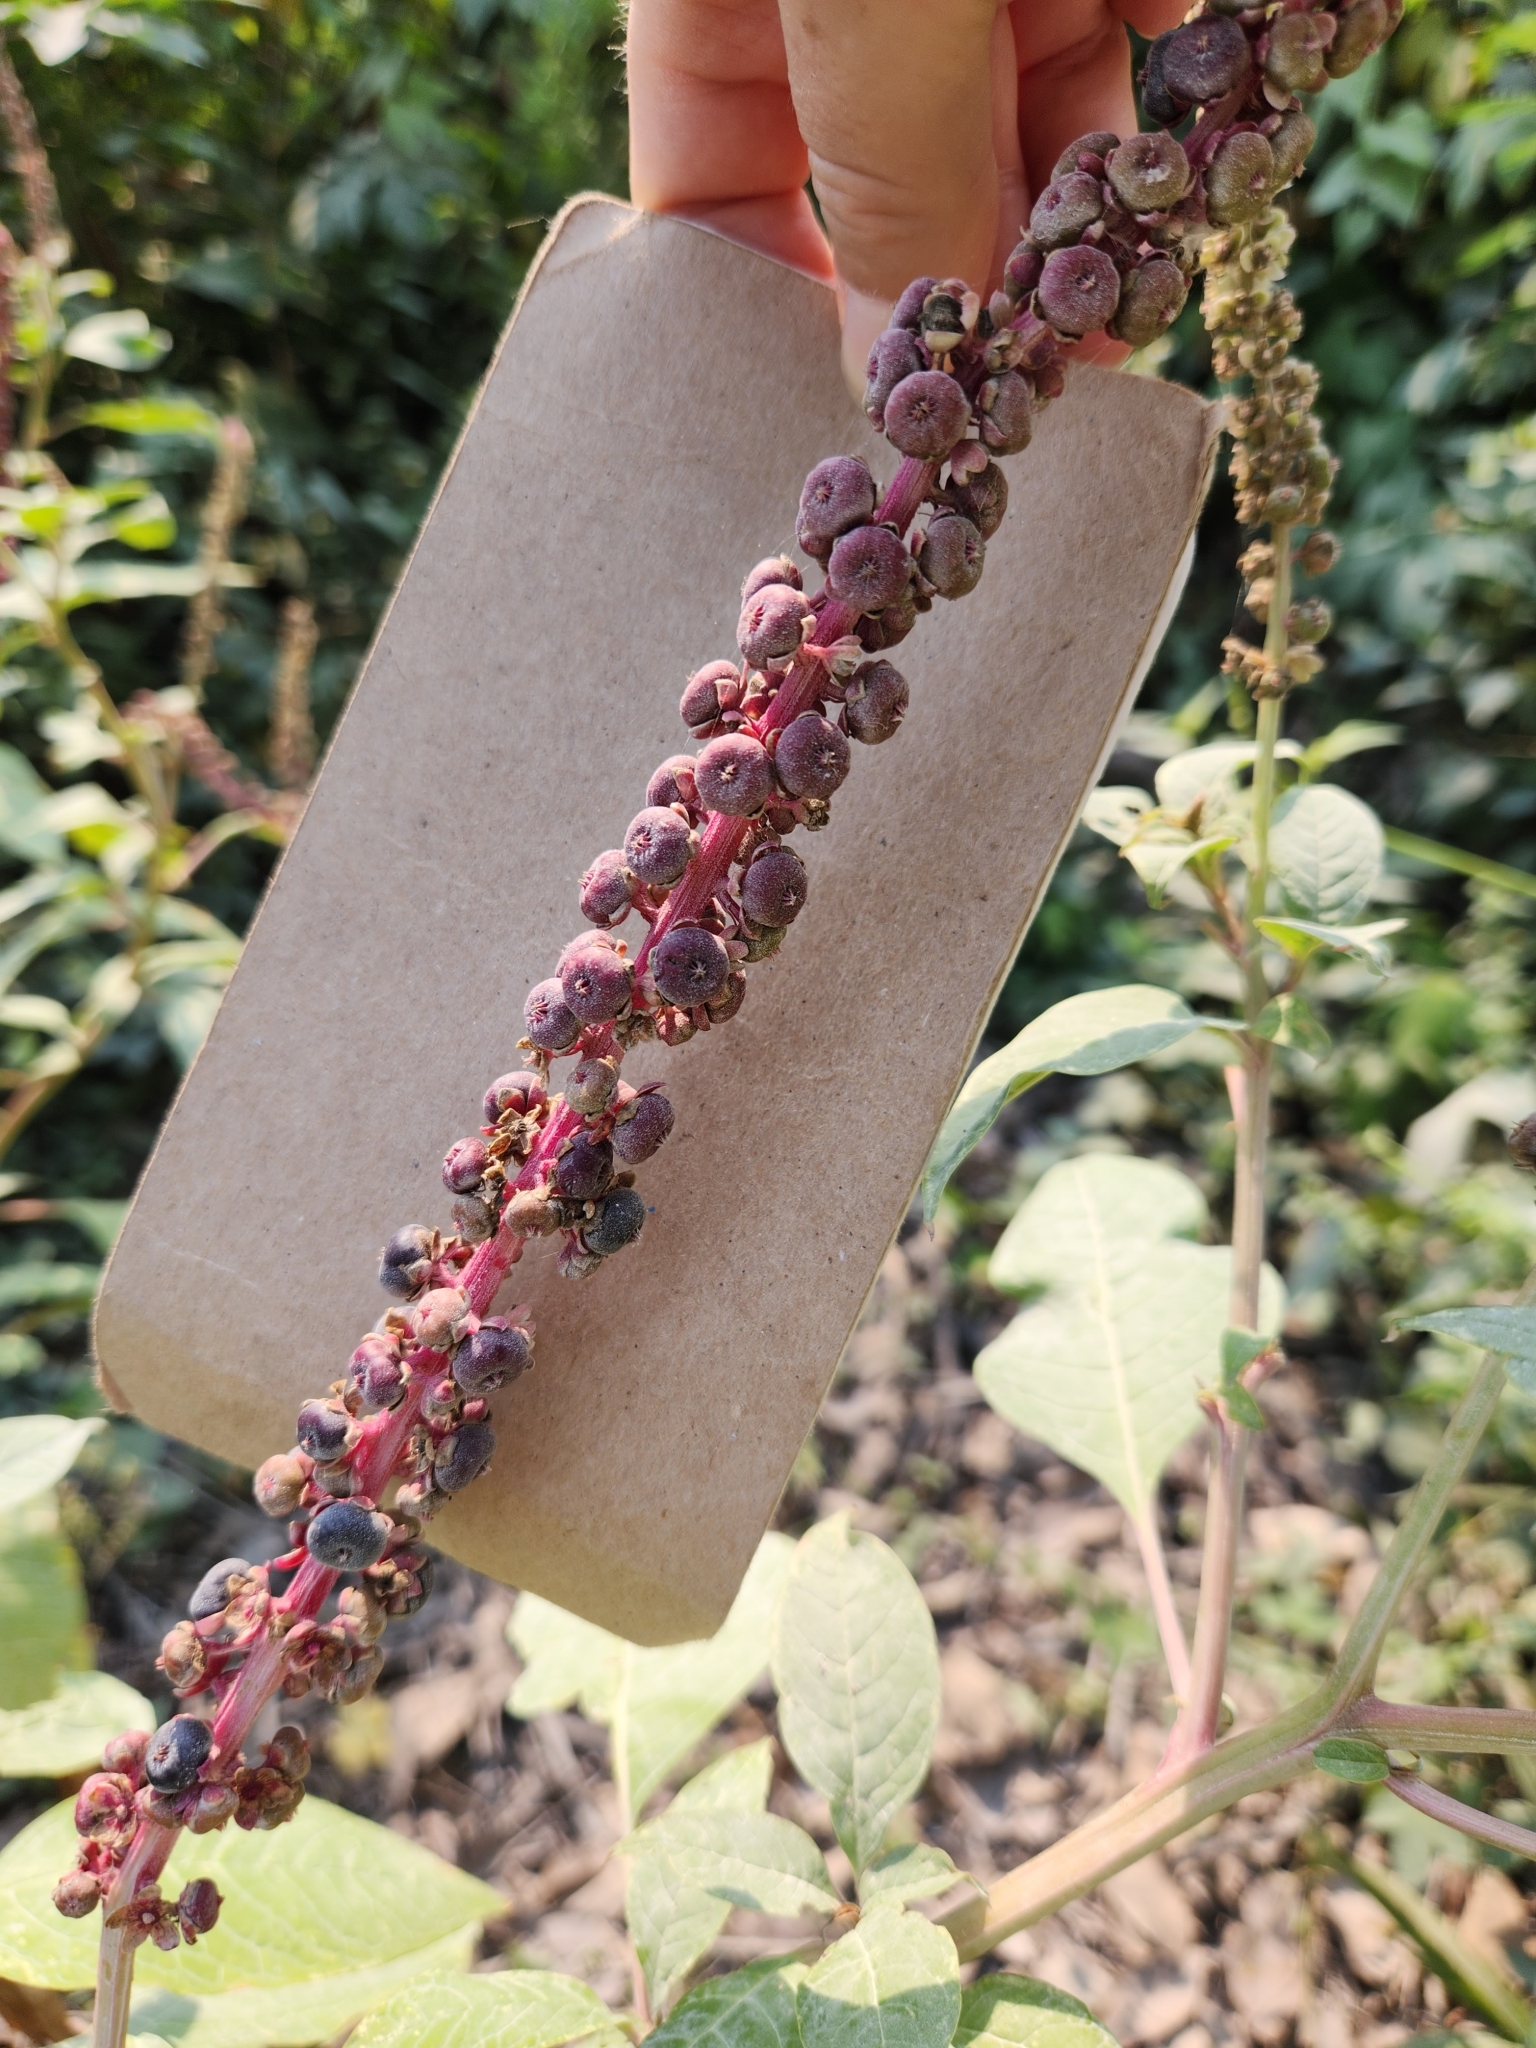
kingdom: Plantae
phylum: Tracheophyta
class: Magnoliopsida
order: Caryophyllales
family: Phytolaccaceae
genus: Phytolacca
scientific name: Phytolacca icosandra
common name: Button pokeweed
